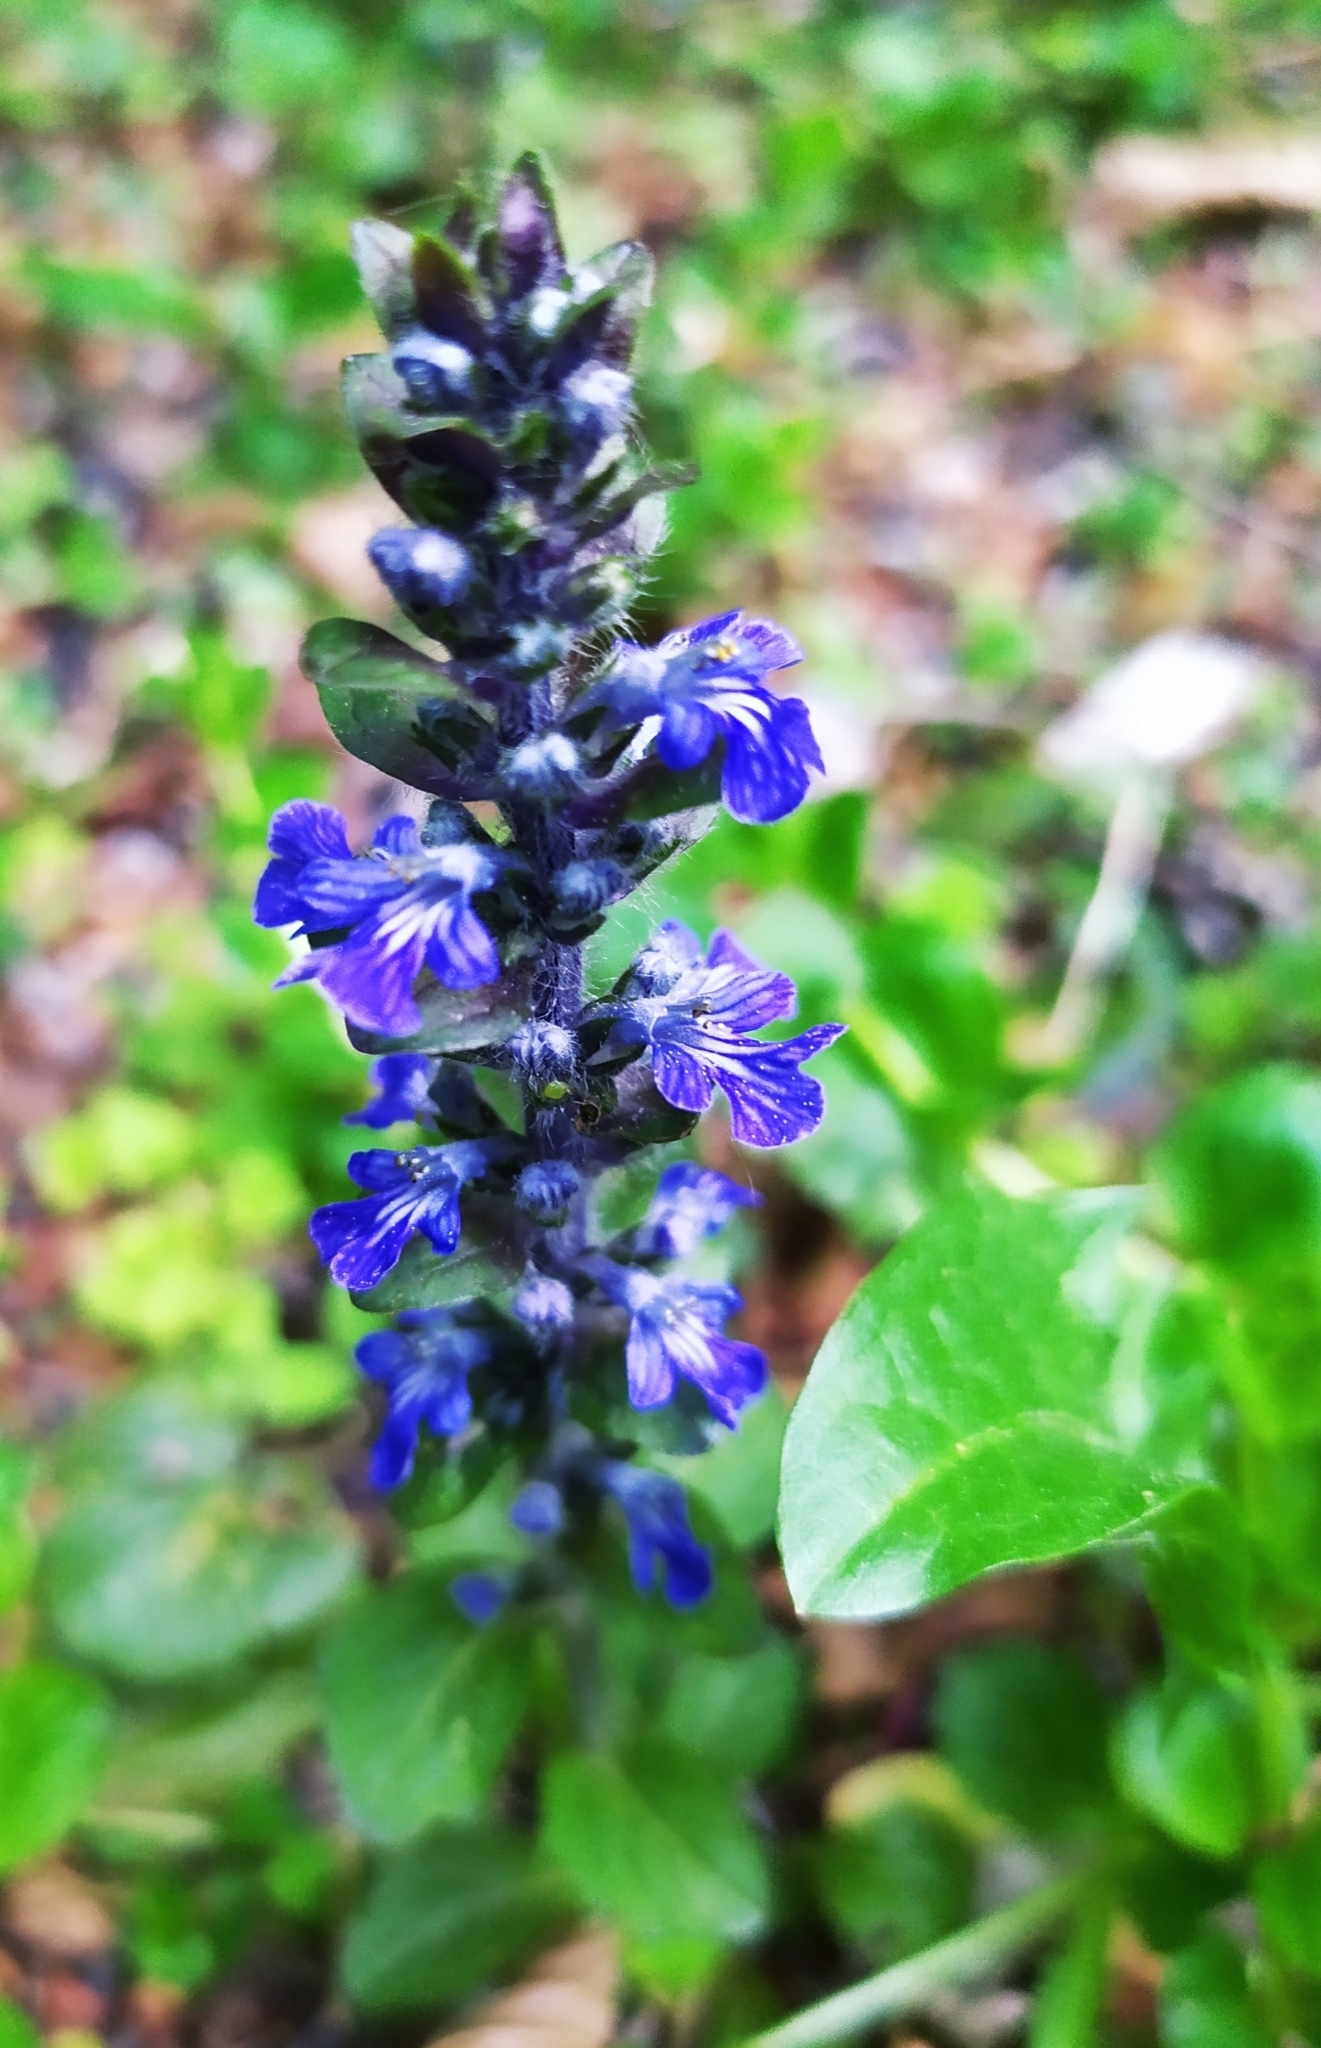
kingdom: Plantae
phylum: Tracheophyta
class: Magnoliopsida
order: Lamiales
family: Lamiaceae
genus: Ajuga
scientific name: Ajuga reptans
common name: Bugle
